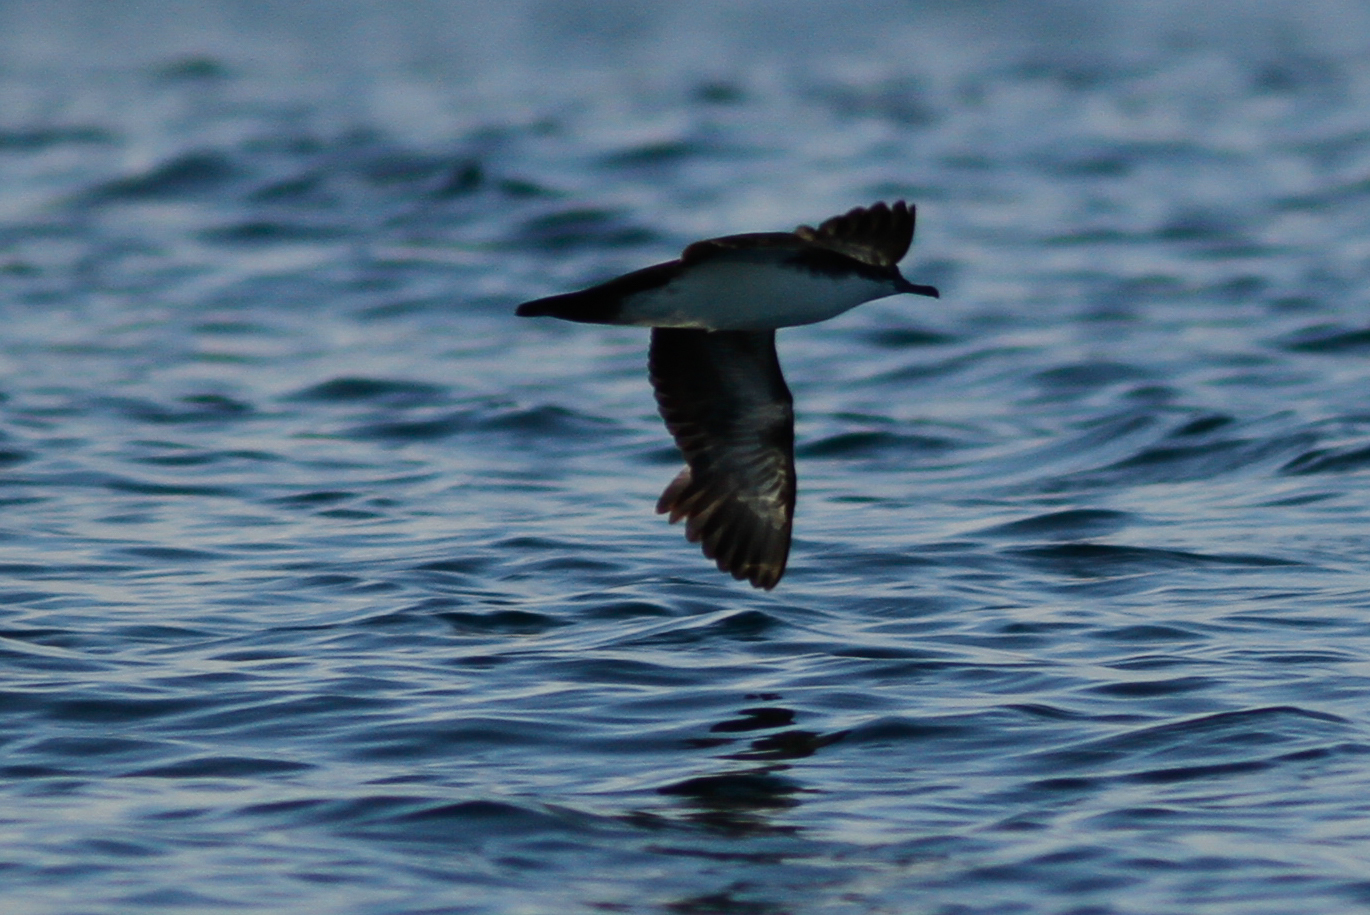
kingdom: Animalia
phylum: Chordata
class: Aves
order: Procellariiformes
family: Procellariidae
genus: Puffinus
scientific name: Puffinus subalaris
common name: Galapagos shearwater
